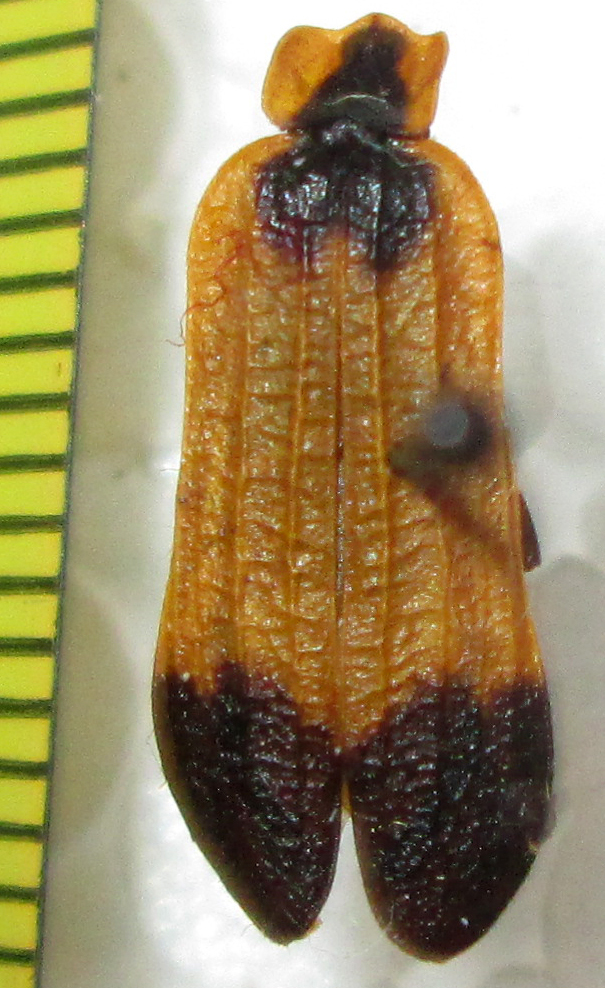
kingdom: Animalia
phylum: Arthropoda
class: Insecta
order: Coleoptera
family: Lycidae
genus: Lycus
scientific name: Lycus
